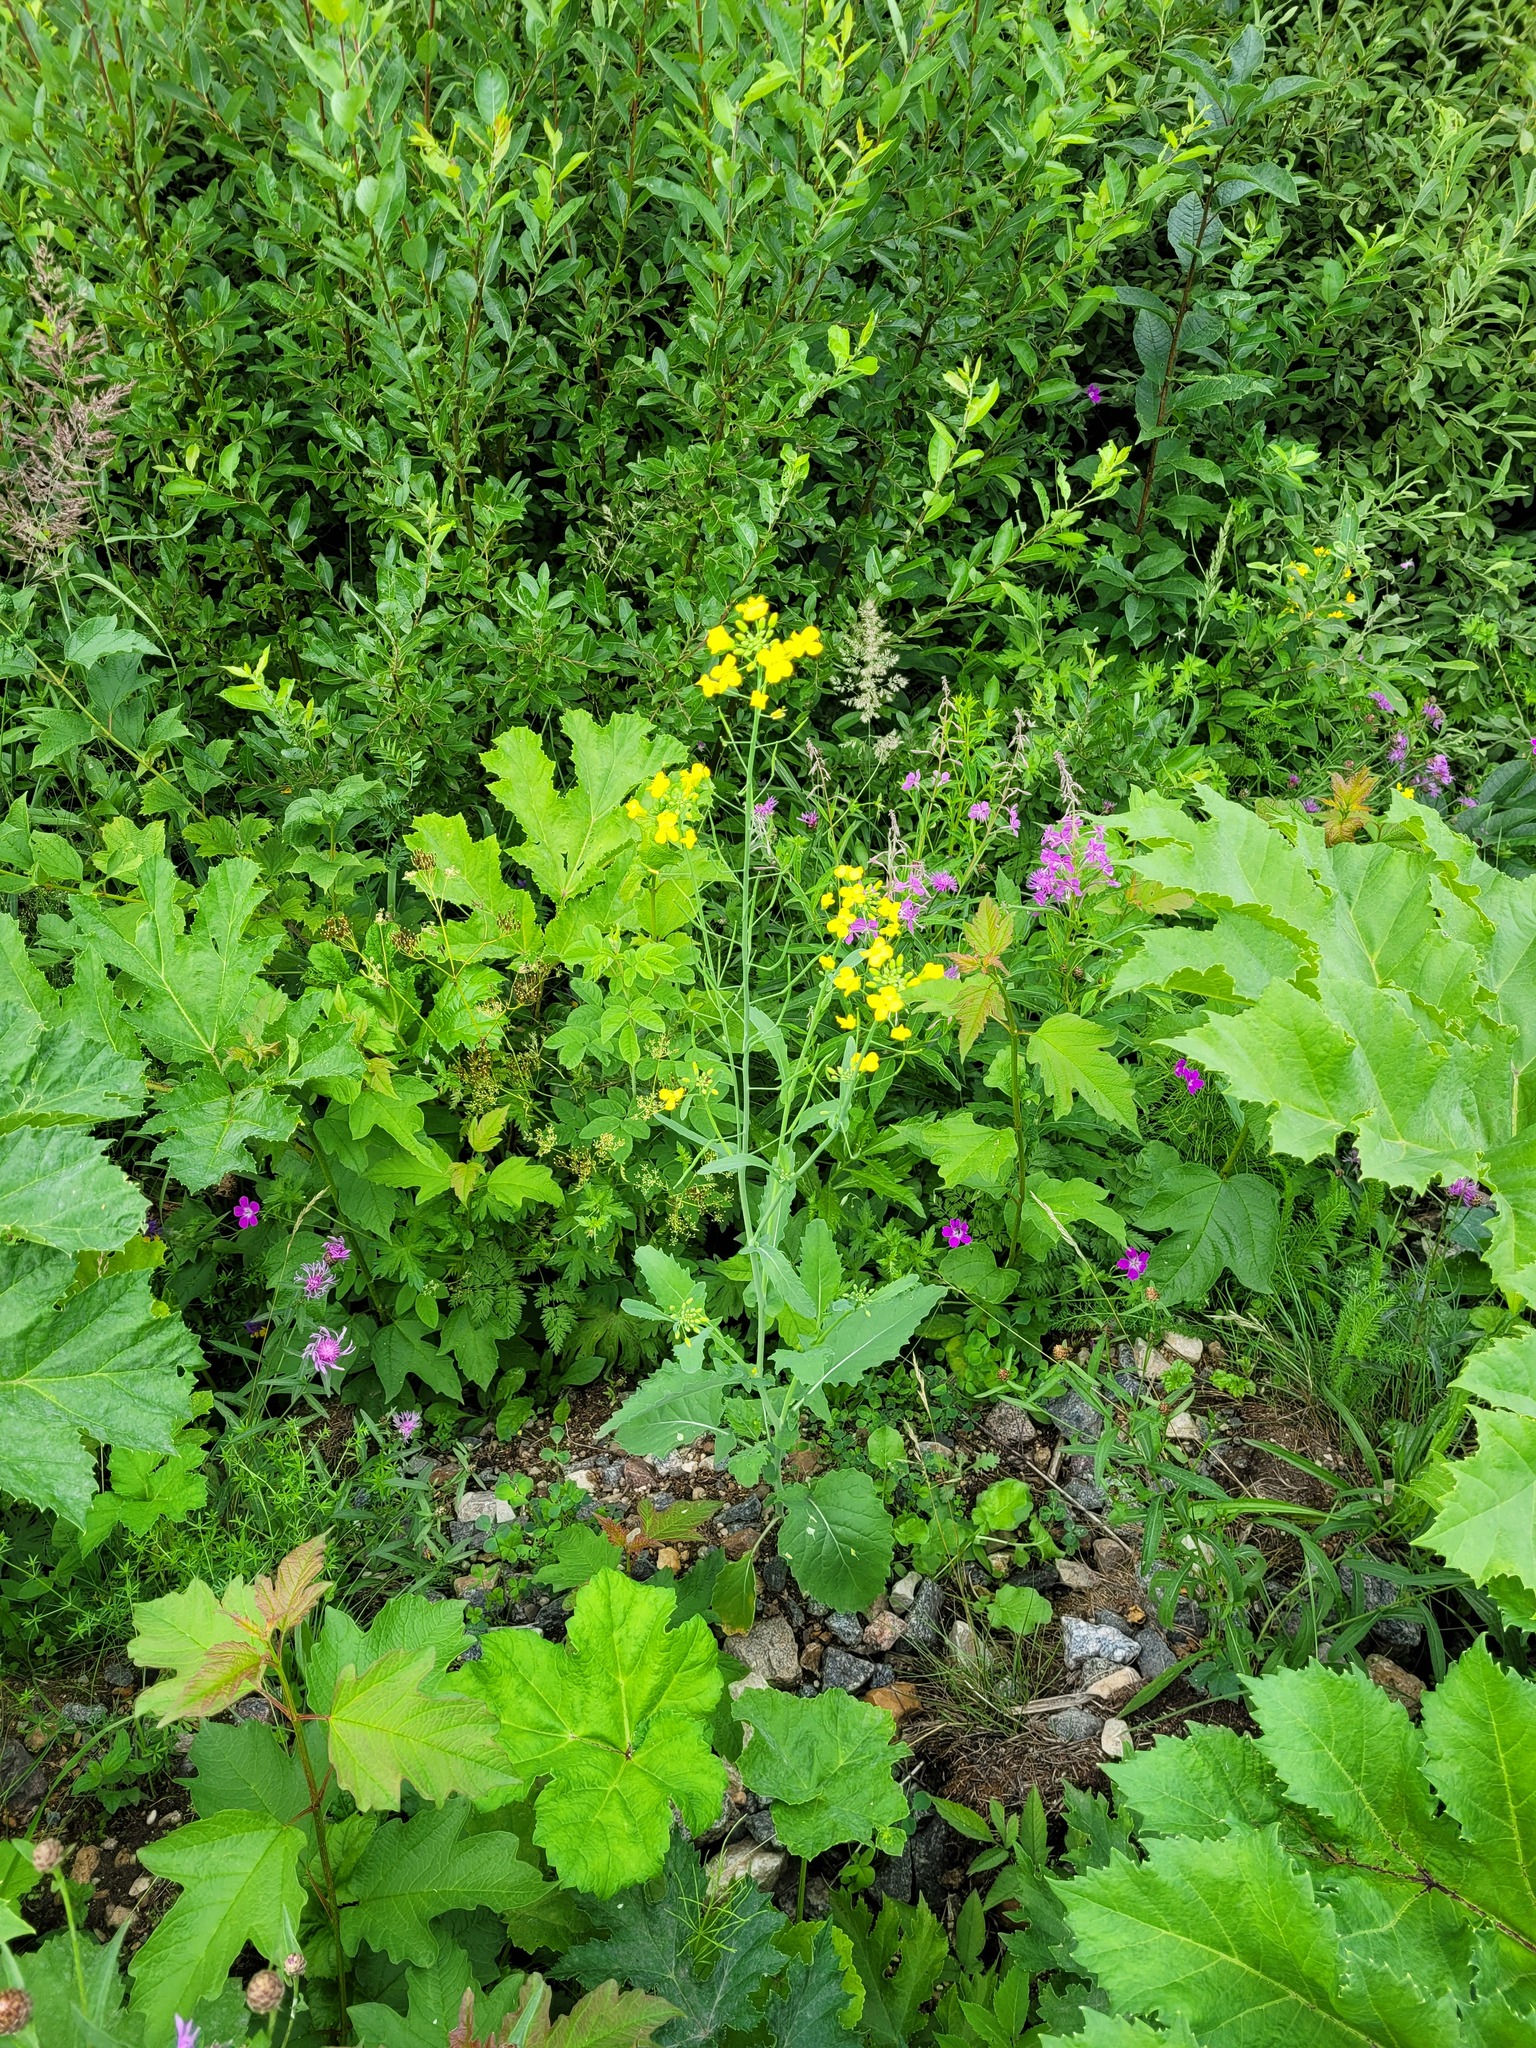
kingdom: Plantae
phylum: Tracheophyta
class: Magnoliopsida
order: Brassicales
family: Brassicaceae
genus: Brassica
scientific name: Brassica napus
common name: Rape
